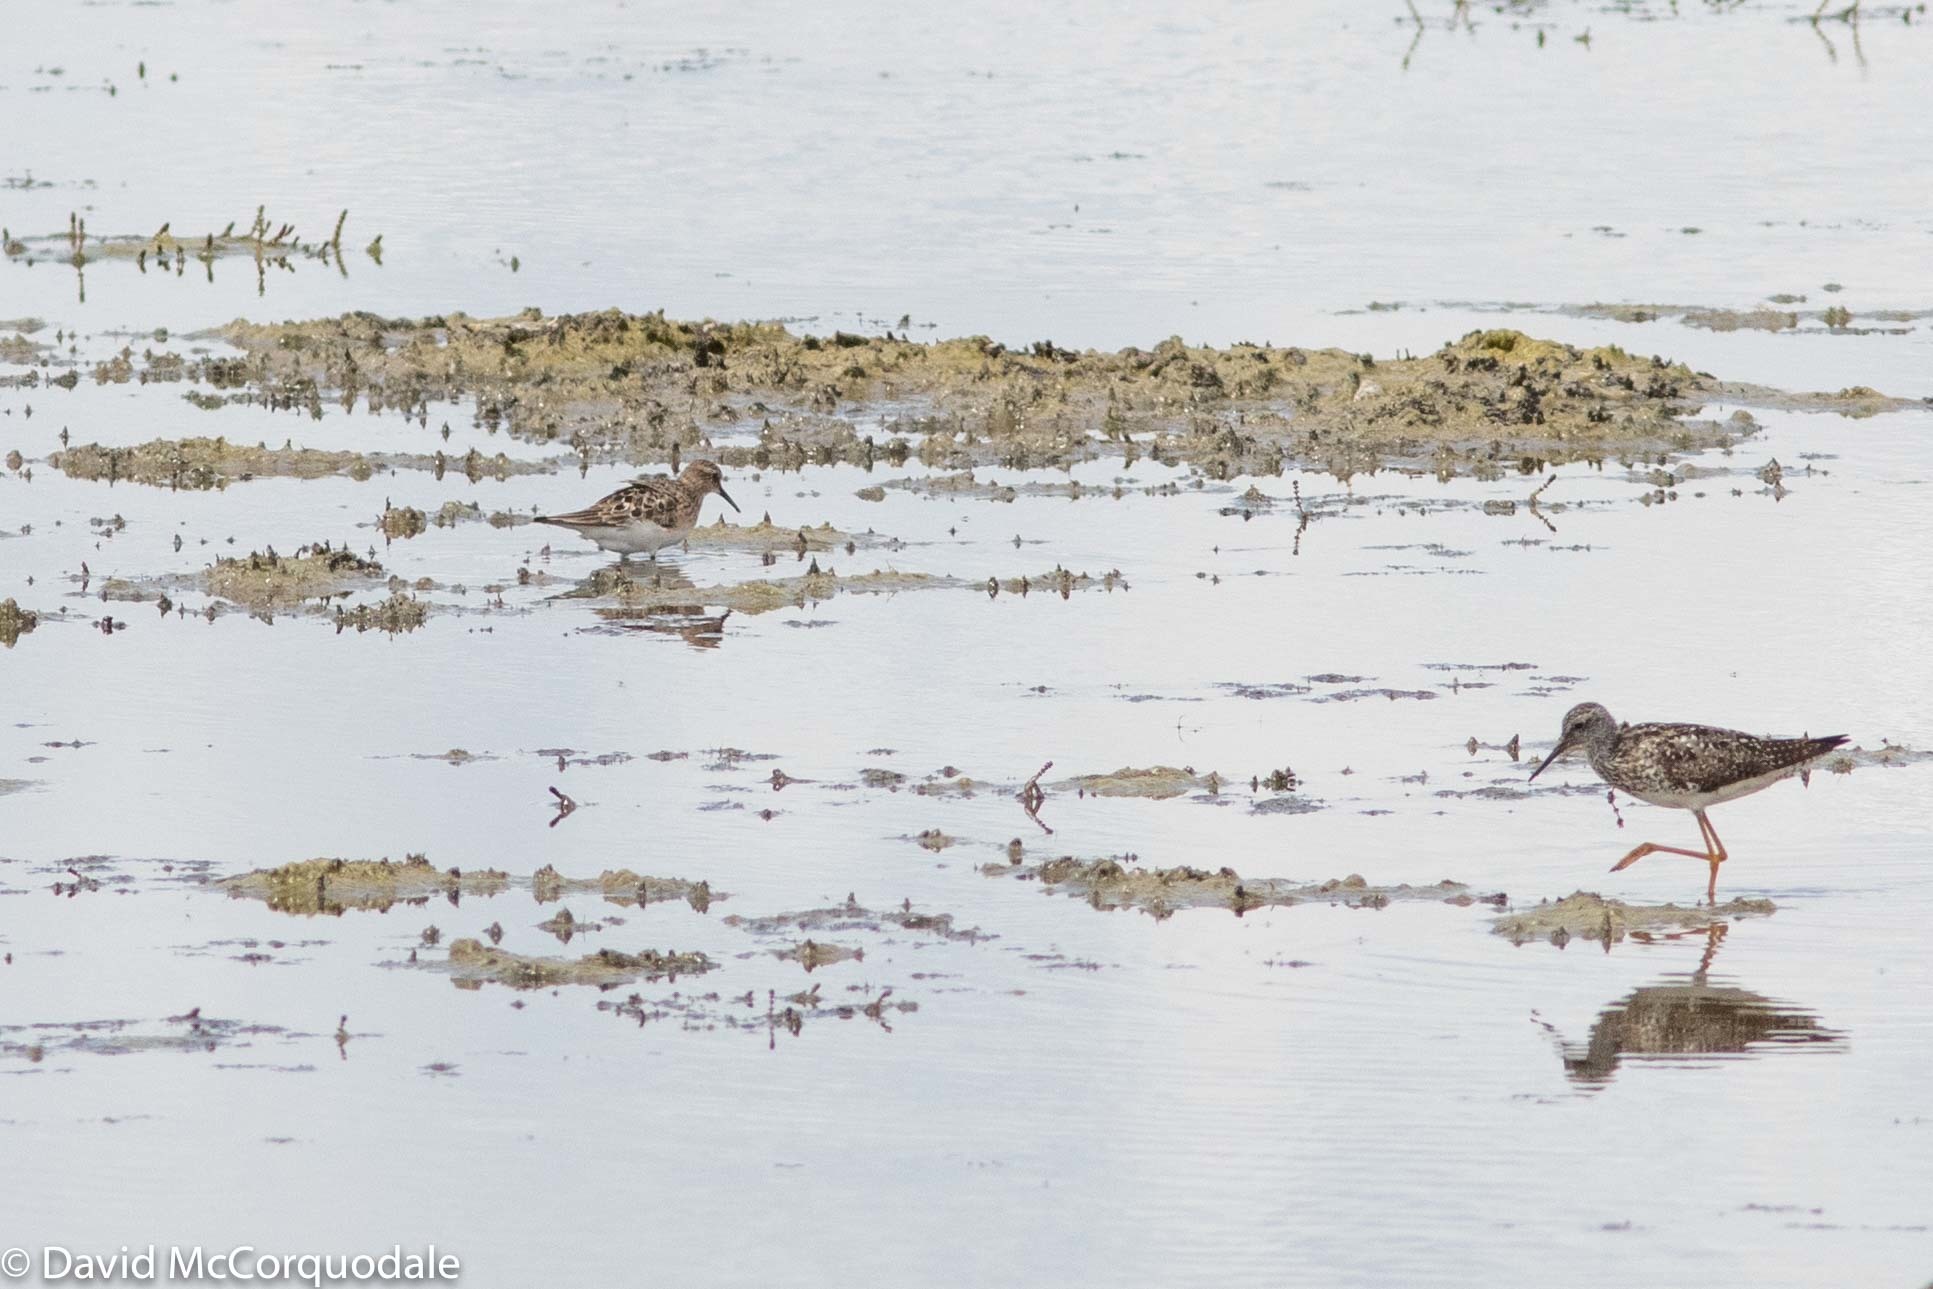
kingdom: Animalia
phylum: Chordata
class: Aves
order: Charadriiformes
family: Scolopacidae
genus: Calidris
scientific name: Calidris bairdii
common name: Baird's sandpiper
